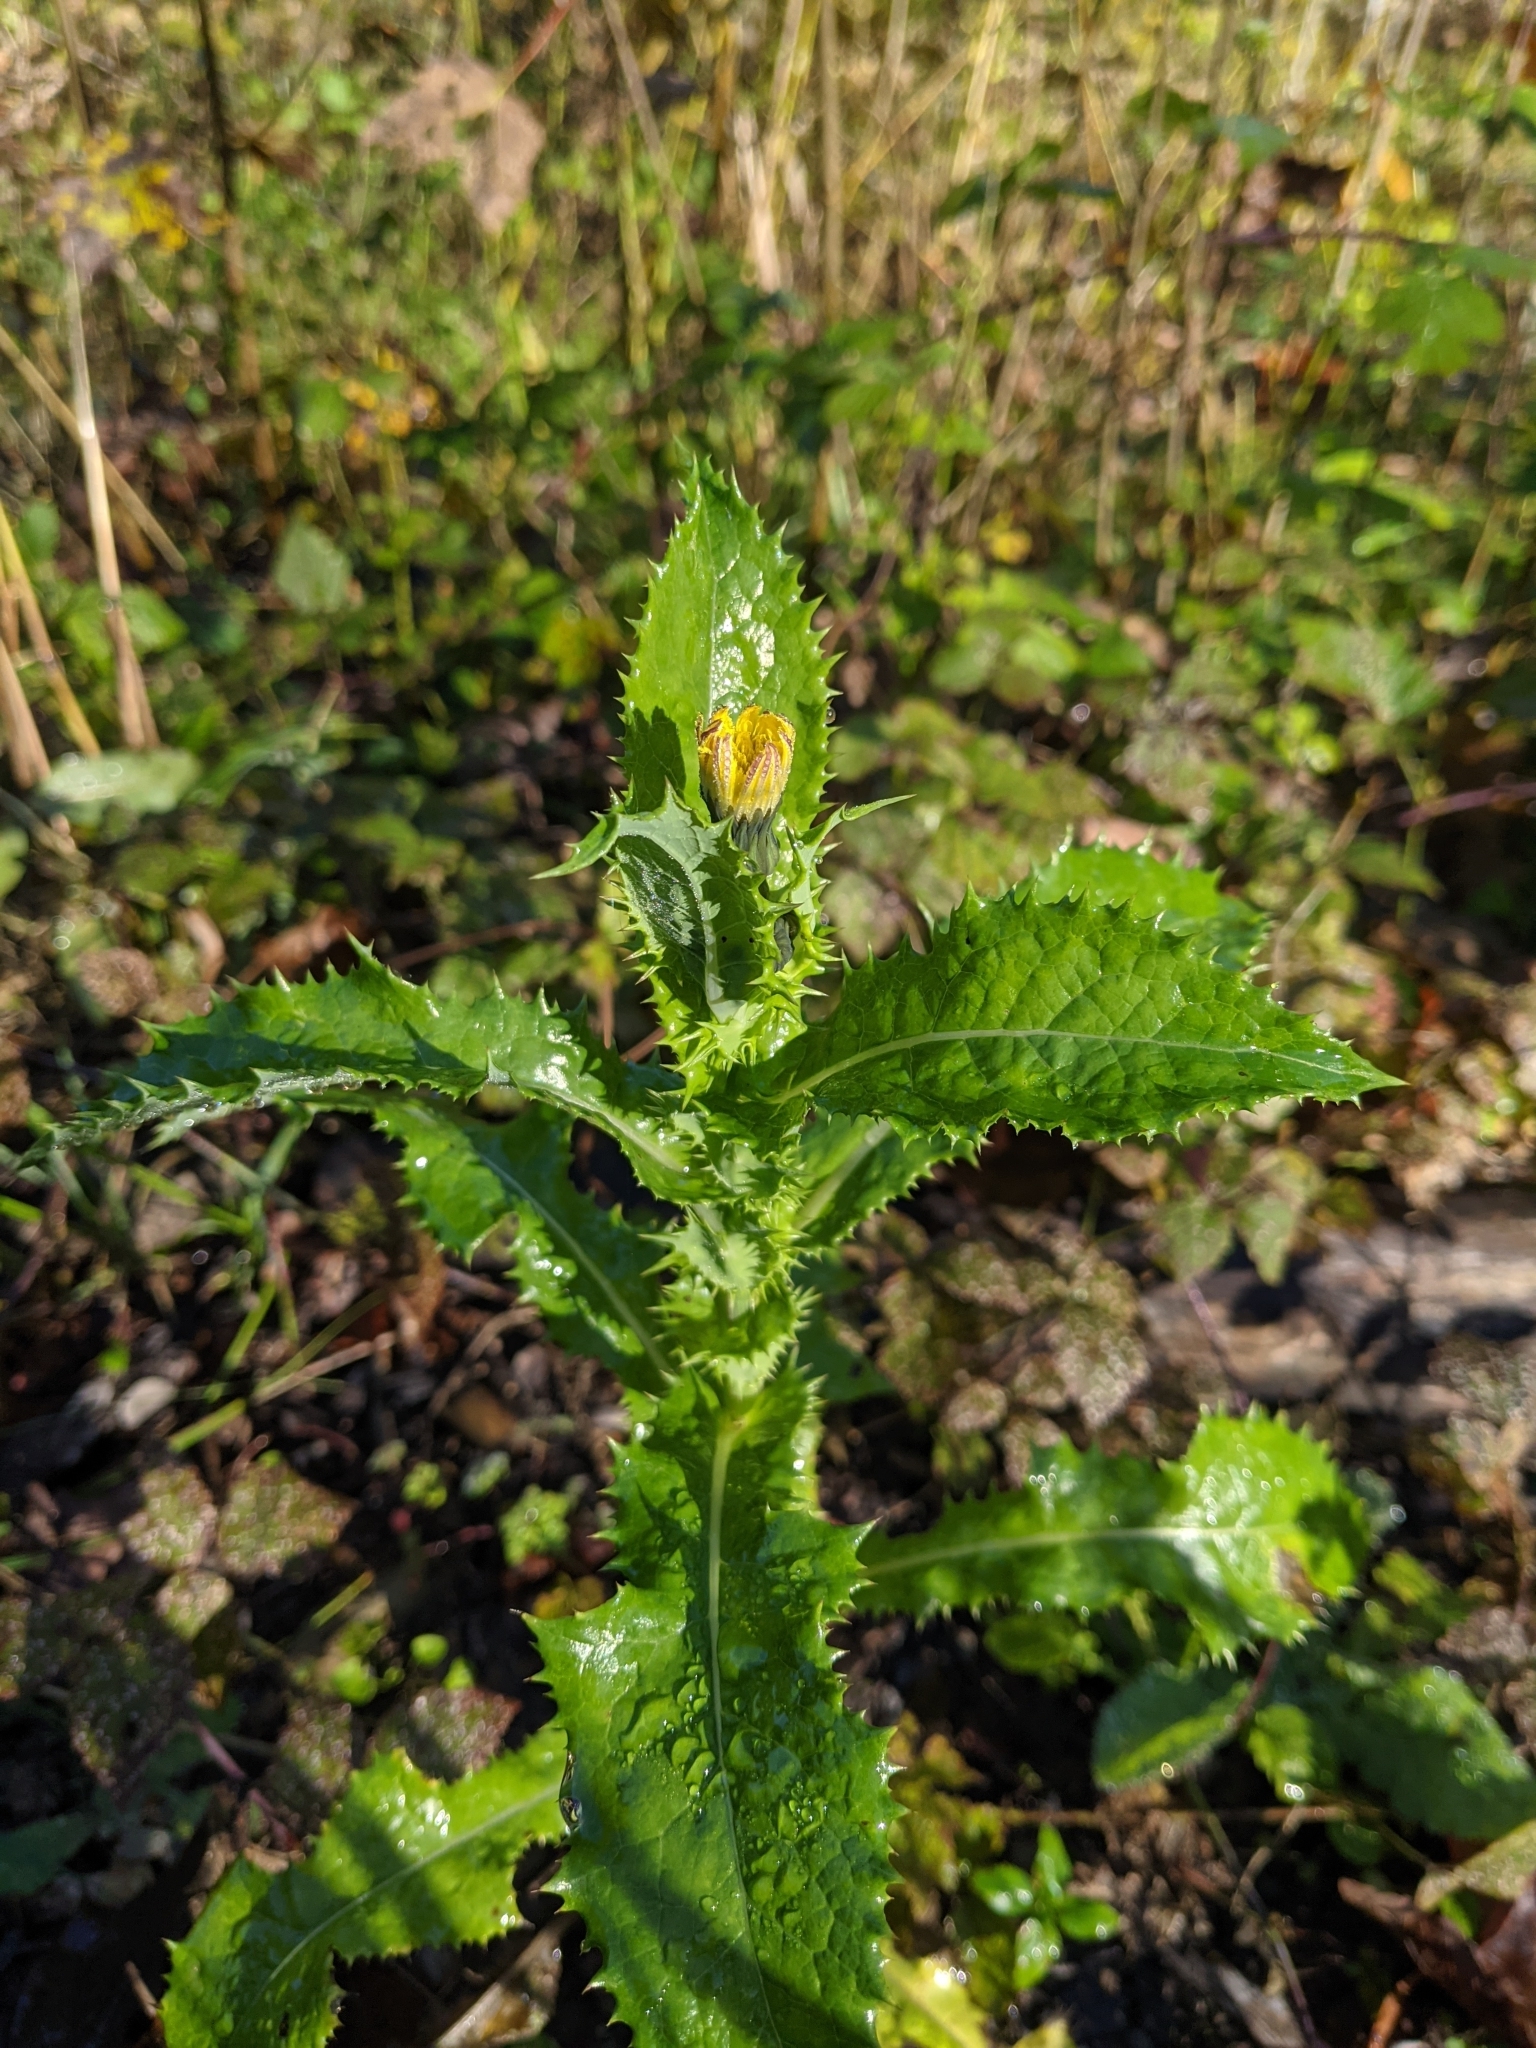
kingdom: Plantae
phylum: Tracheophyta
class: Magnoliopsida
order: Asterales
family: Asteraceae
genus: Sonchus
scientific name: Sonchus asper
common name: Prickly sow-thistle
